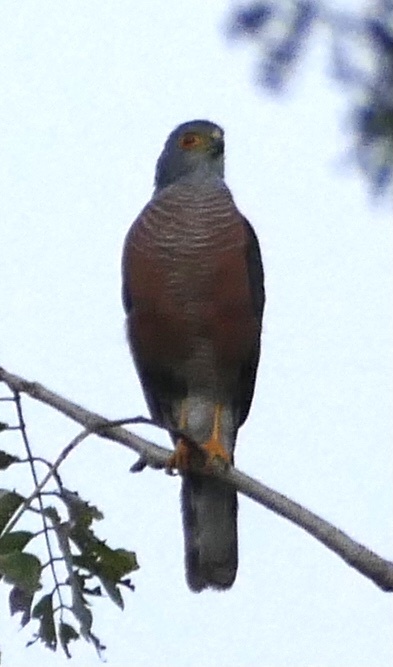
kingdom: Animalia
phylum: Chordata
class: Aves
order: Accipitriformes
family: Accipitridae
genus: Accipiter
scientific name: Accipiter badius
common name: Shikra
